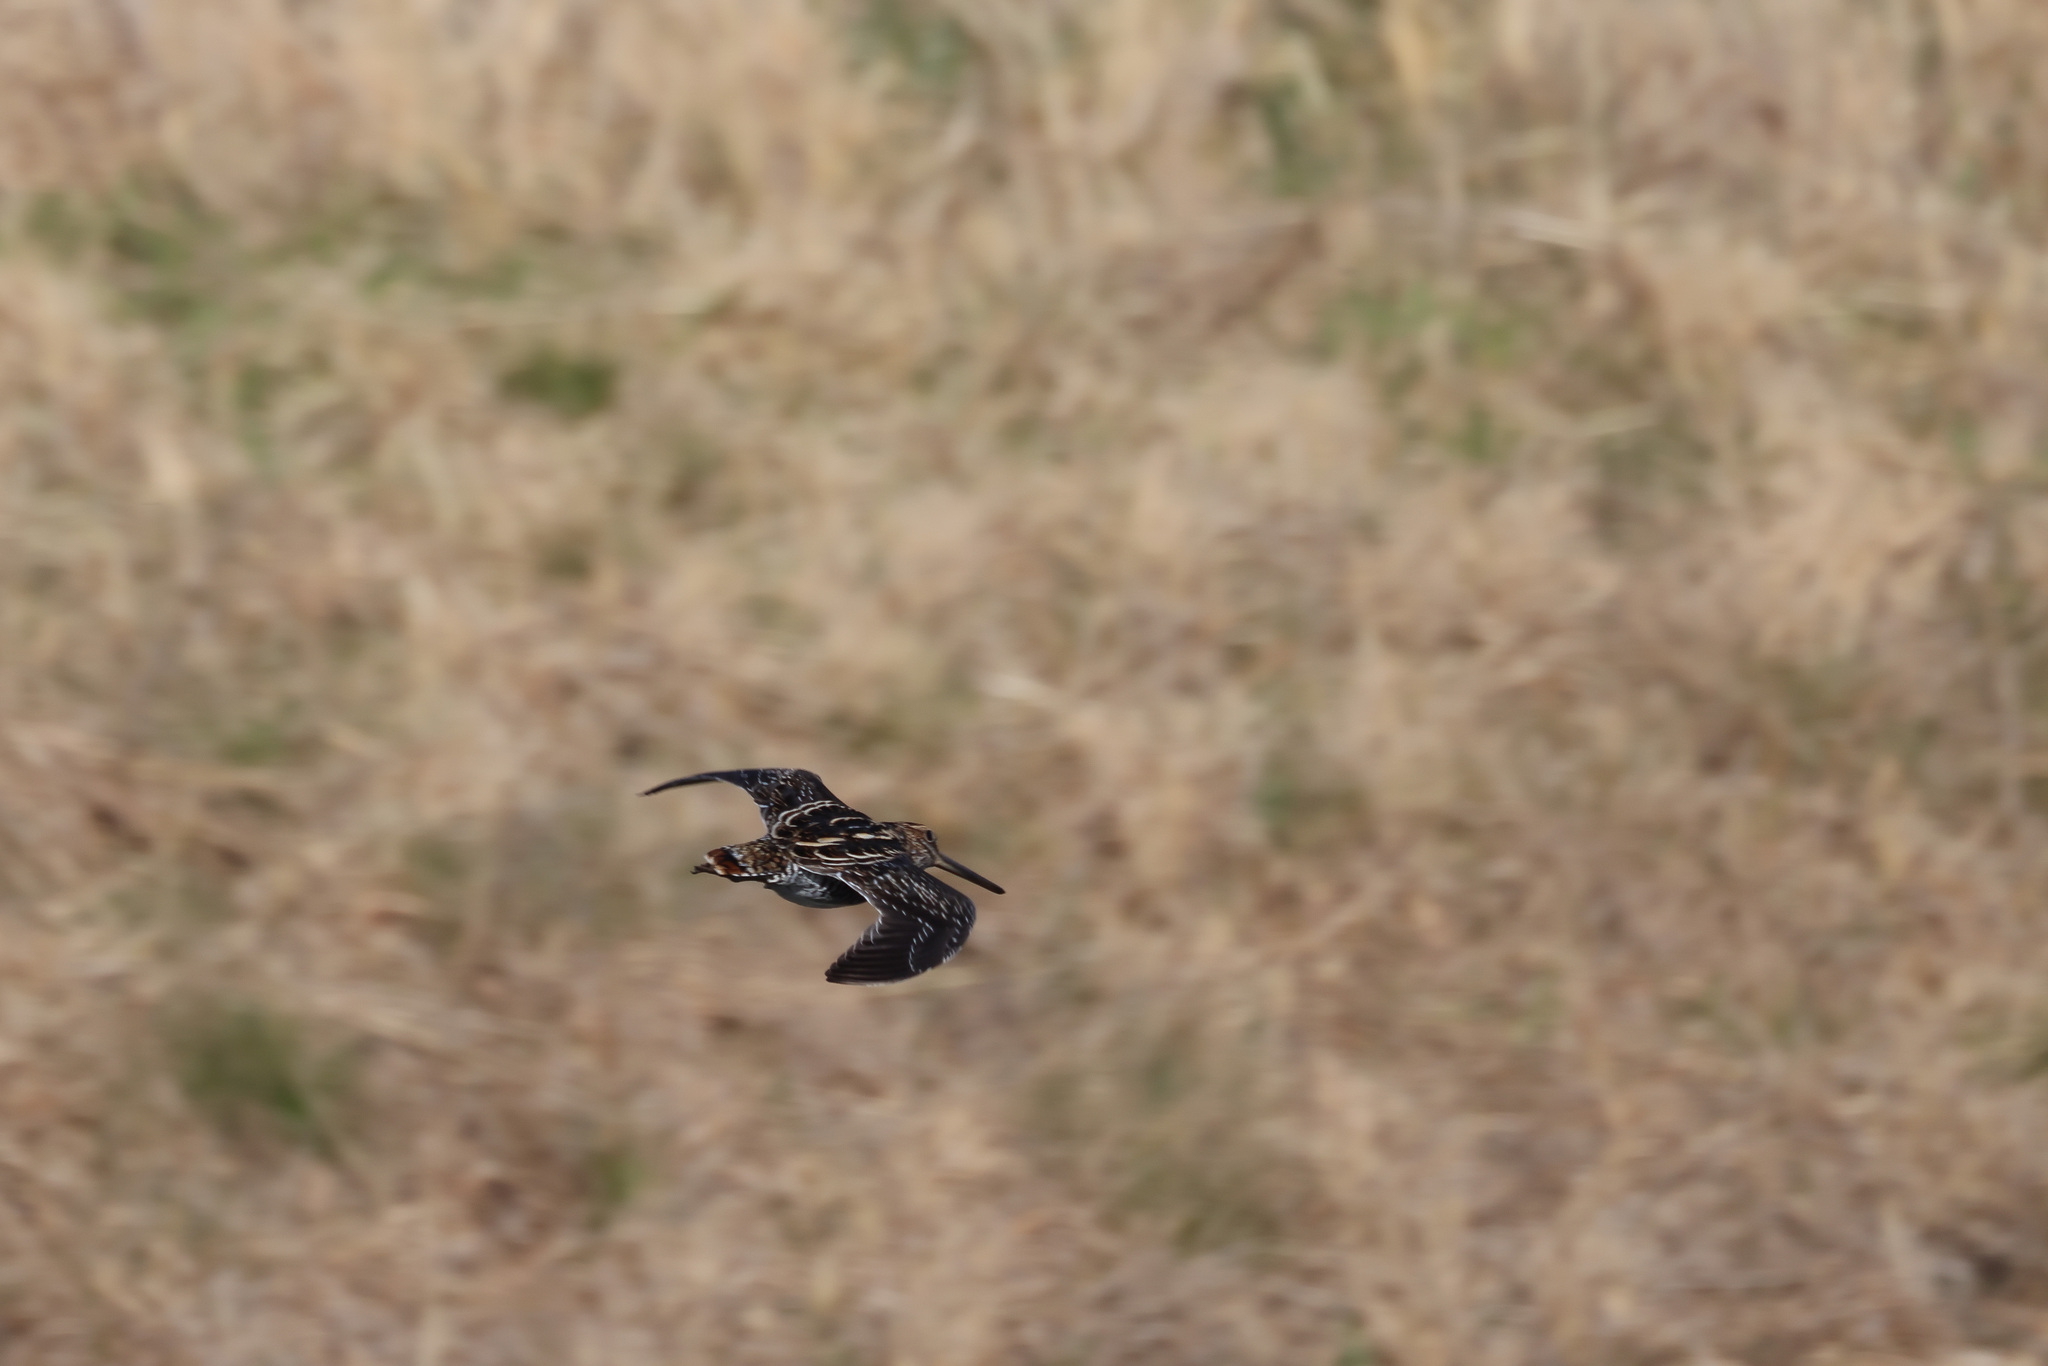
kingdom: Animalia
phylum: Chordata
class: Aves
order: Charadriiformes
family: Scolopacidae
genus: Gallinago
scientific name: Gallinago delicata
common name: Wilson's snipe
